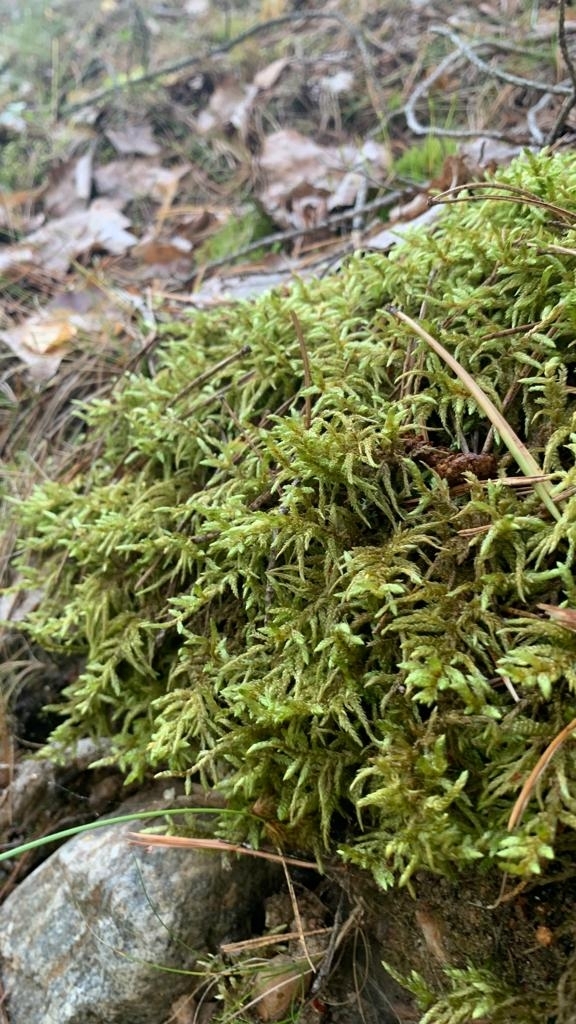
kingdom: Plantae
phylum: Bryophyta
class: Bryopsida
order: Hypnales
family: Hylocomiaceae
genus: Hylocomium
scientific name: Hylocomium splendens
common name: Stairstep moss
